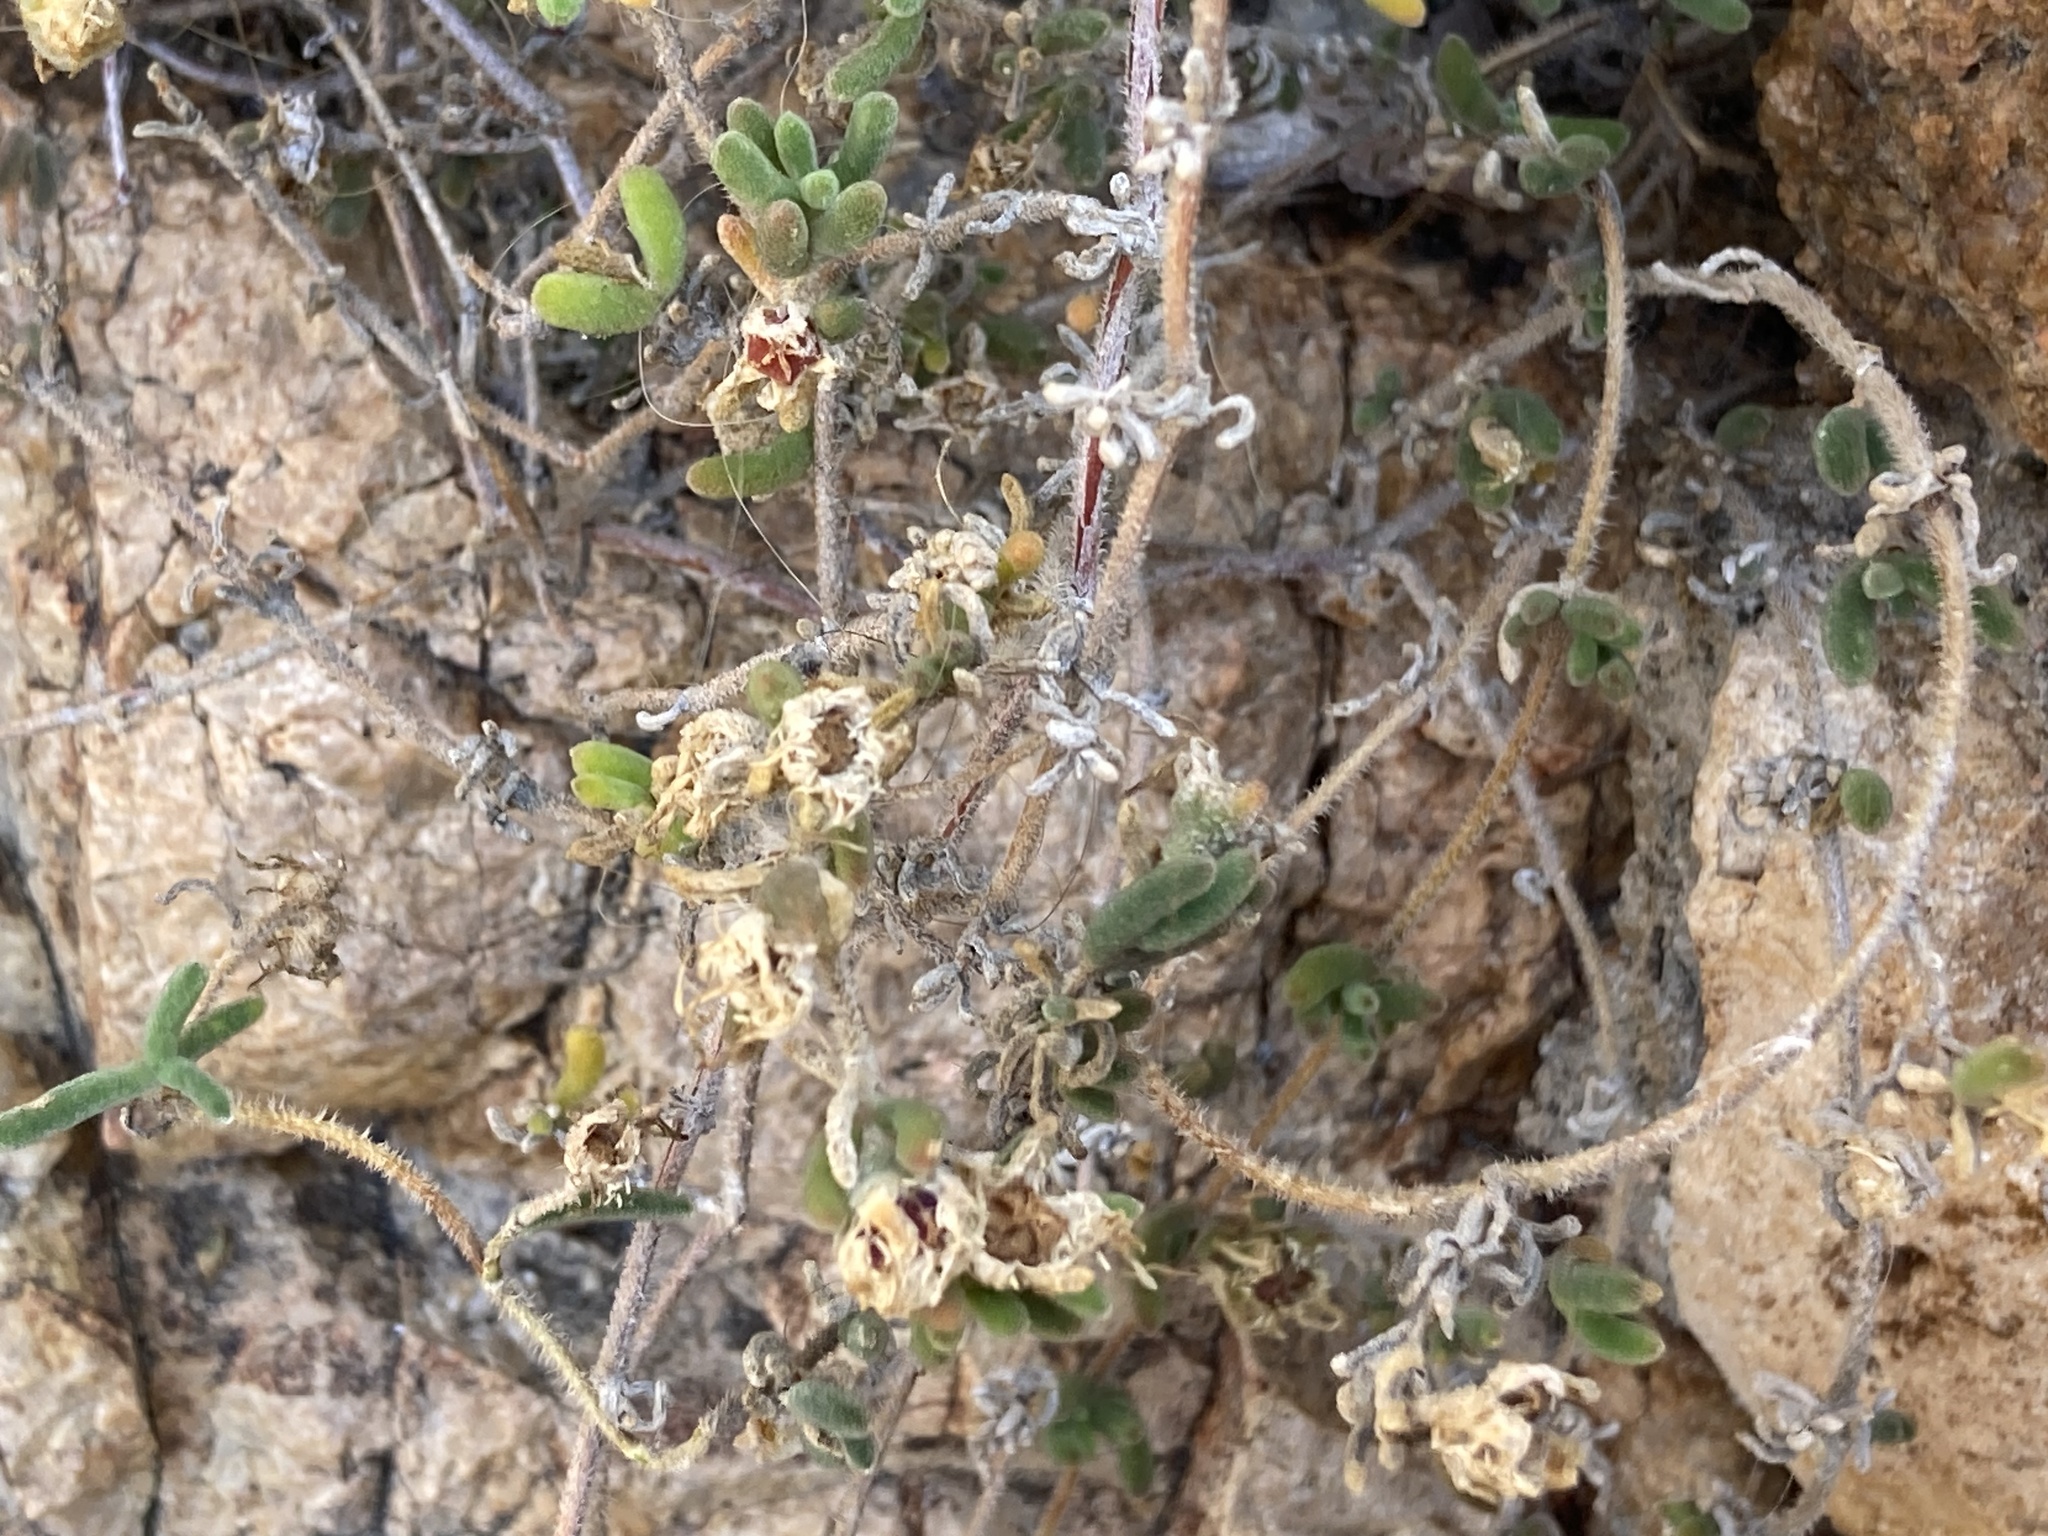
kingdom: Plantae
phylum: Tracheophyta
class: Magnoliopsida
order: Caryophyllales
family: Aizoaceae
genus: Drosanthemum
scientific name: Drosanthemum floribundum
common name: Pale dewplant
